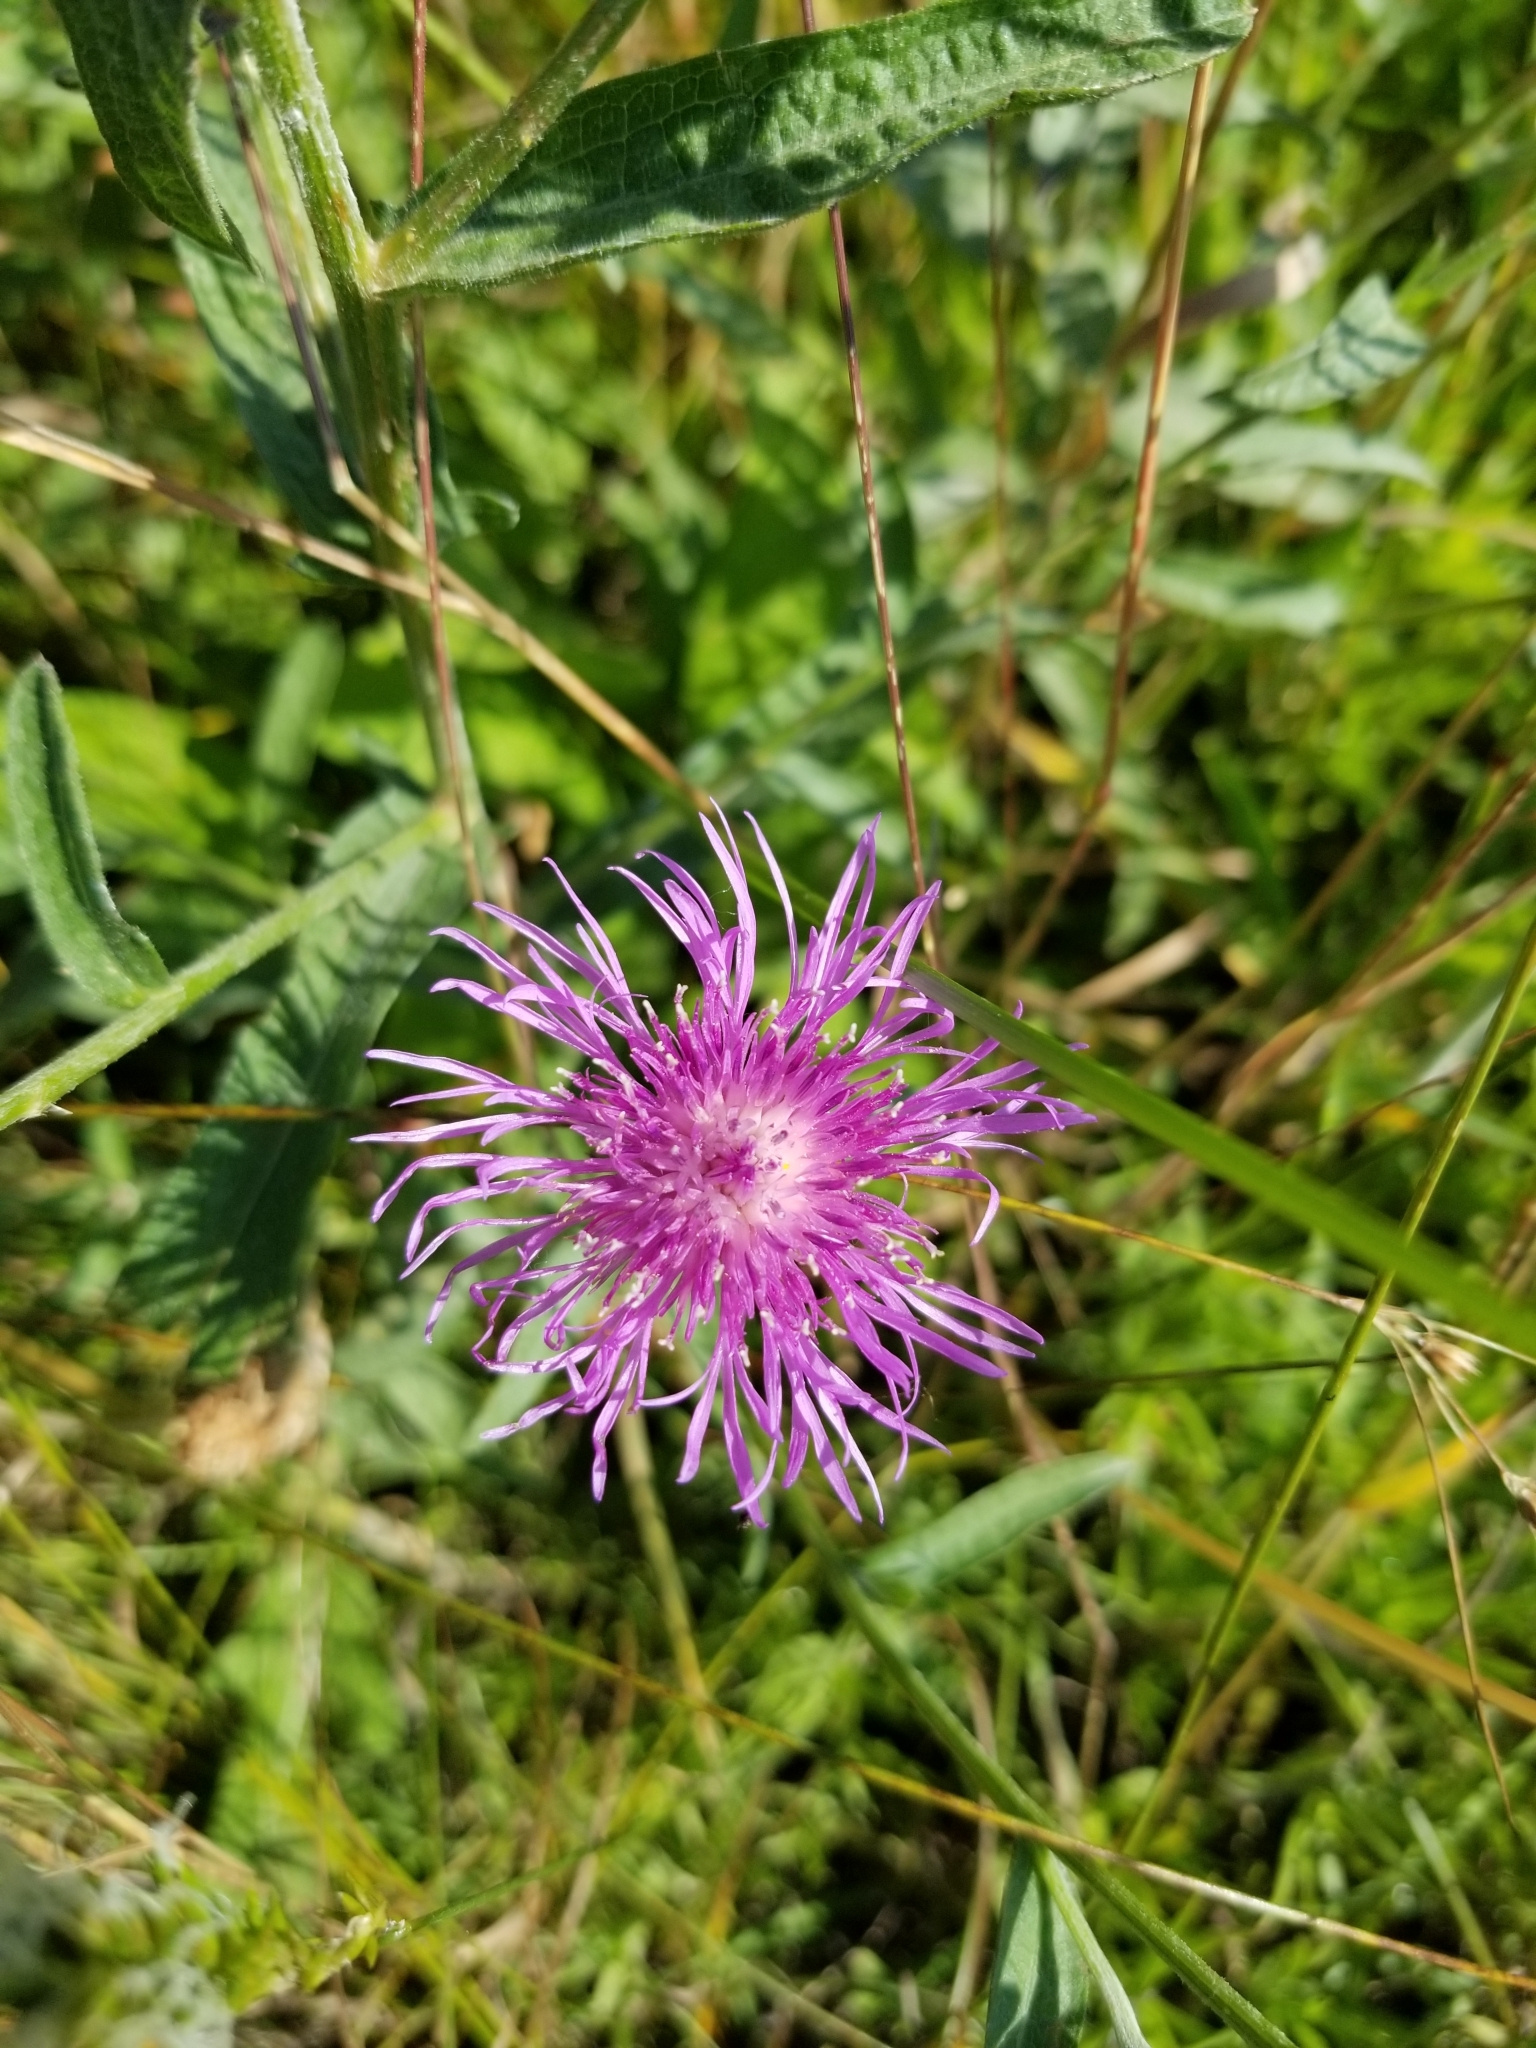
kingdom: Plantae
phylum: Tracheophyta
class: Magnoliopsida
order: Asterales
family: Asteraceae
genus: Centaurea
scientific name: Centaurea stoebe
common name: Spotted knapweed
